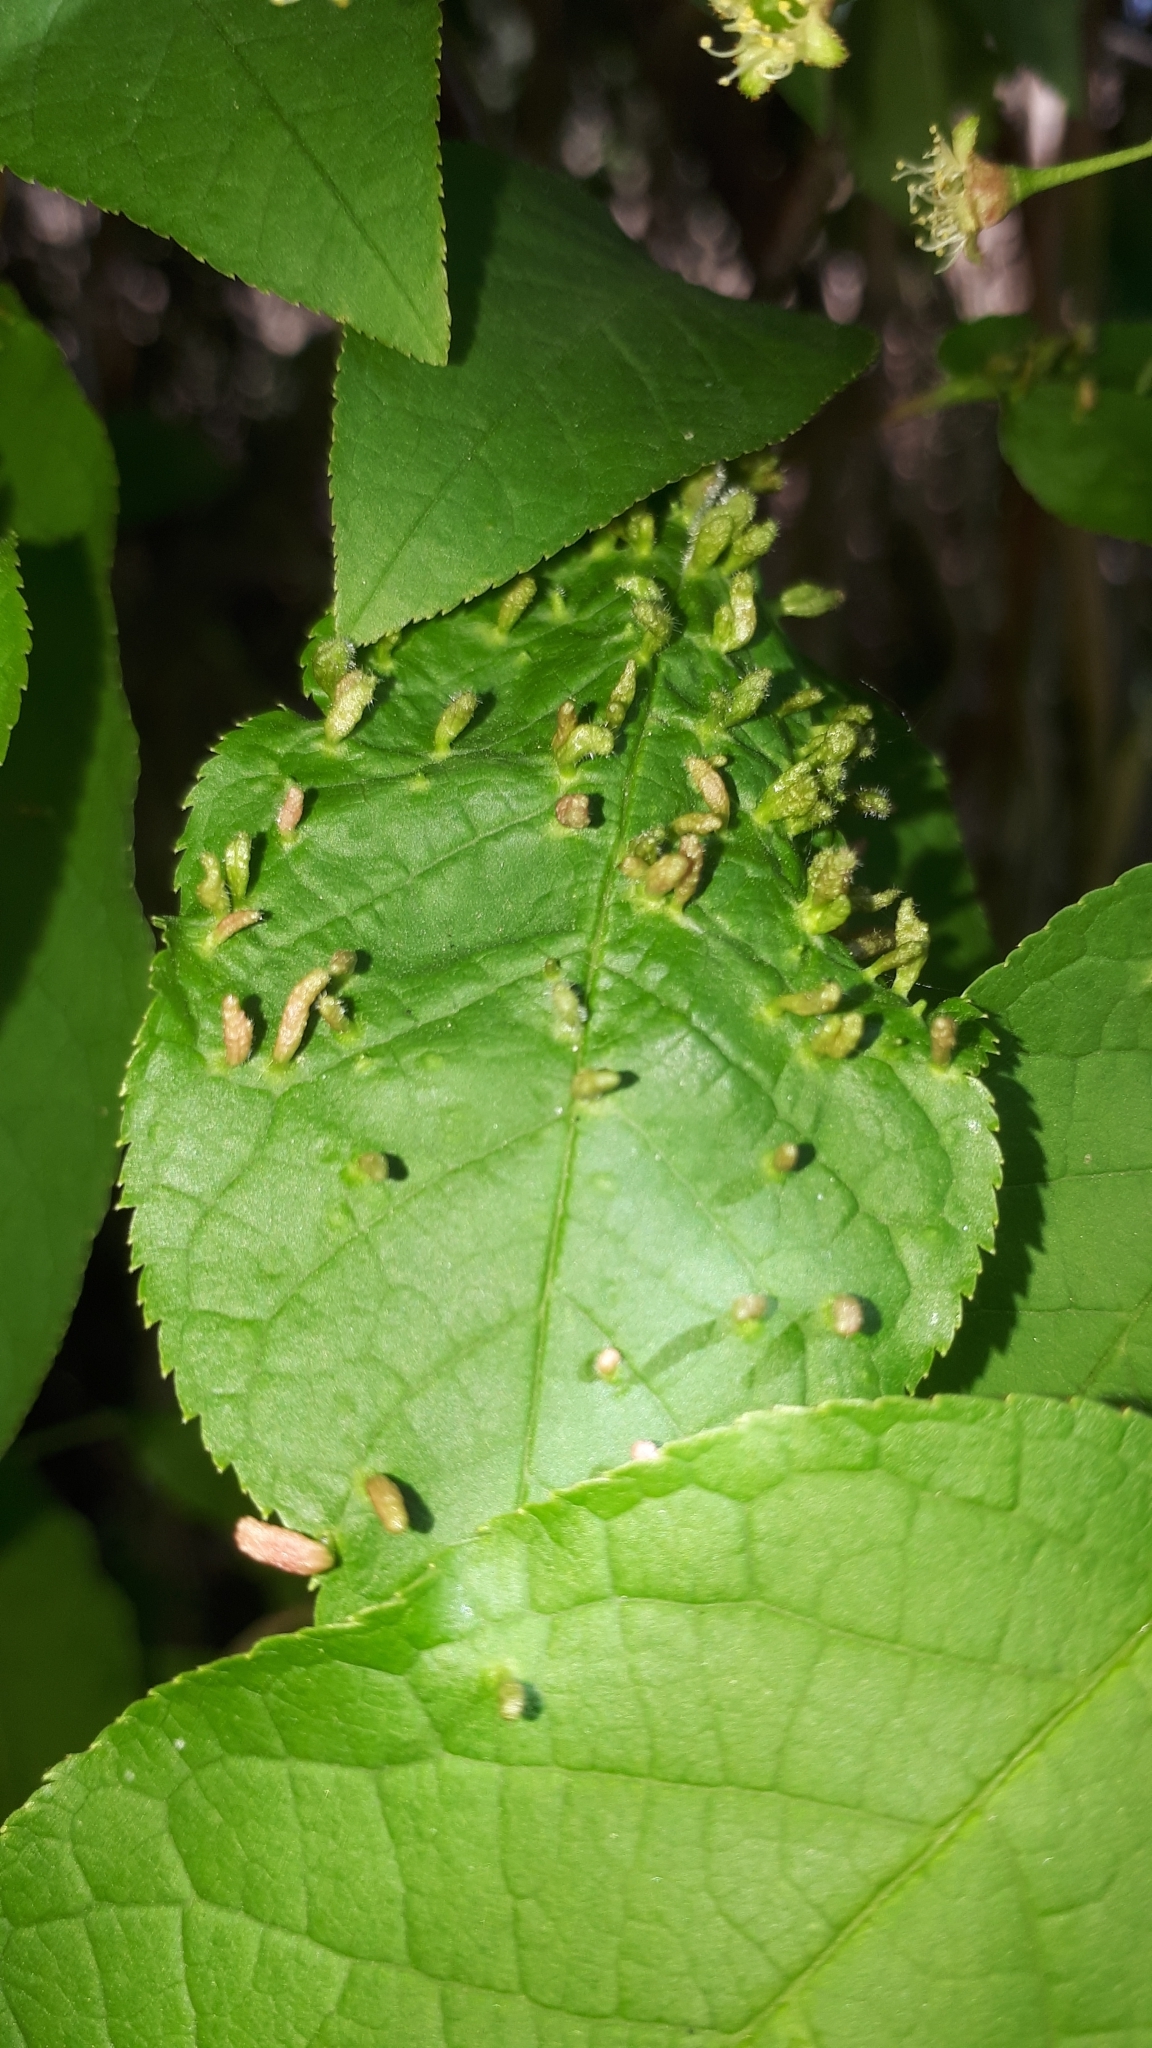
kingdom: Animalia
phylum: Arthropoda
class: Arachnida
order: Trombidiformes
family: Eriophyidae
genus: Phyllocoptes
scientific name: Phyllocoptes eupadi
